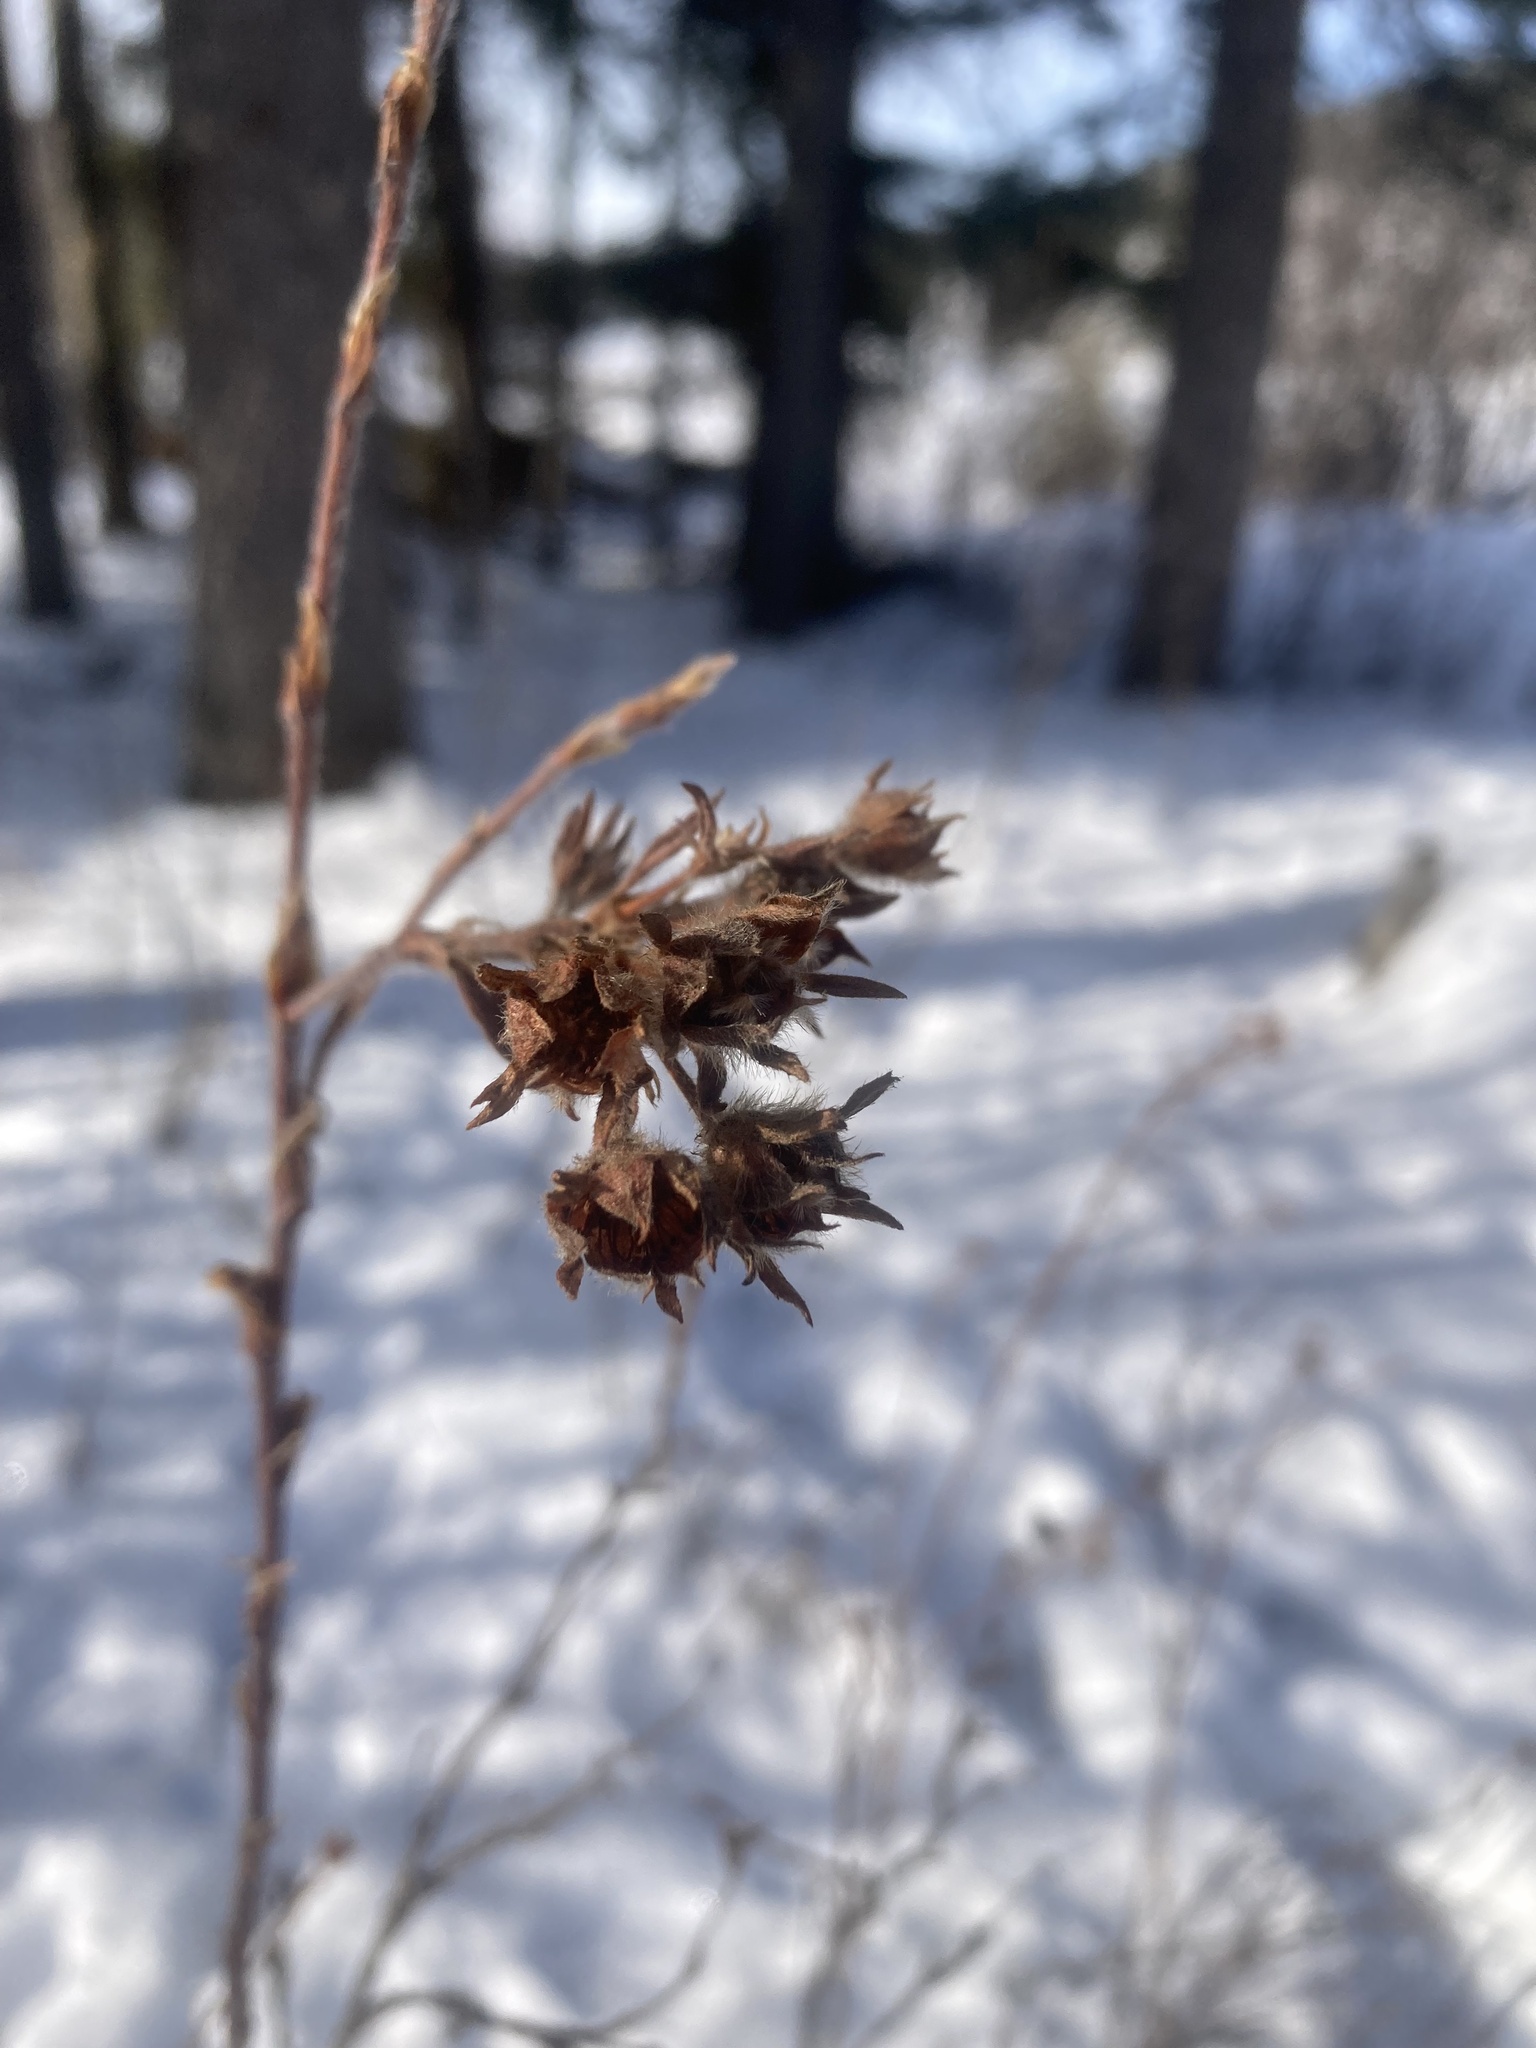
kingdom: Plantae
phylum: Tracheophyta
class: Magnoliopsida
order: Rosales
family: Rosaceae
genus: Dasiphora
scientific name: Dasiphora fruticosa
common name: Shrubby cinquefoil
